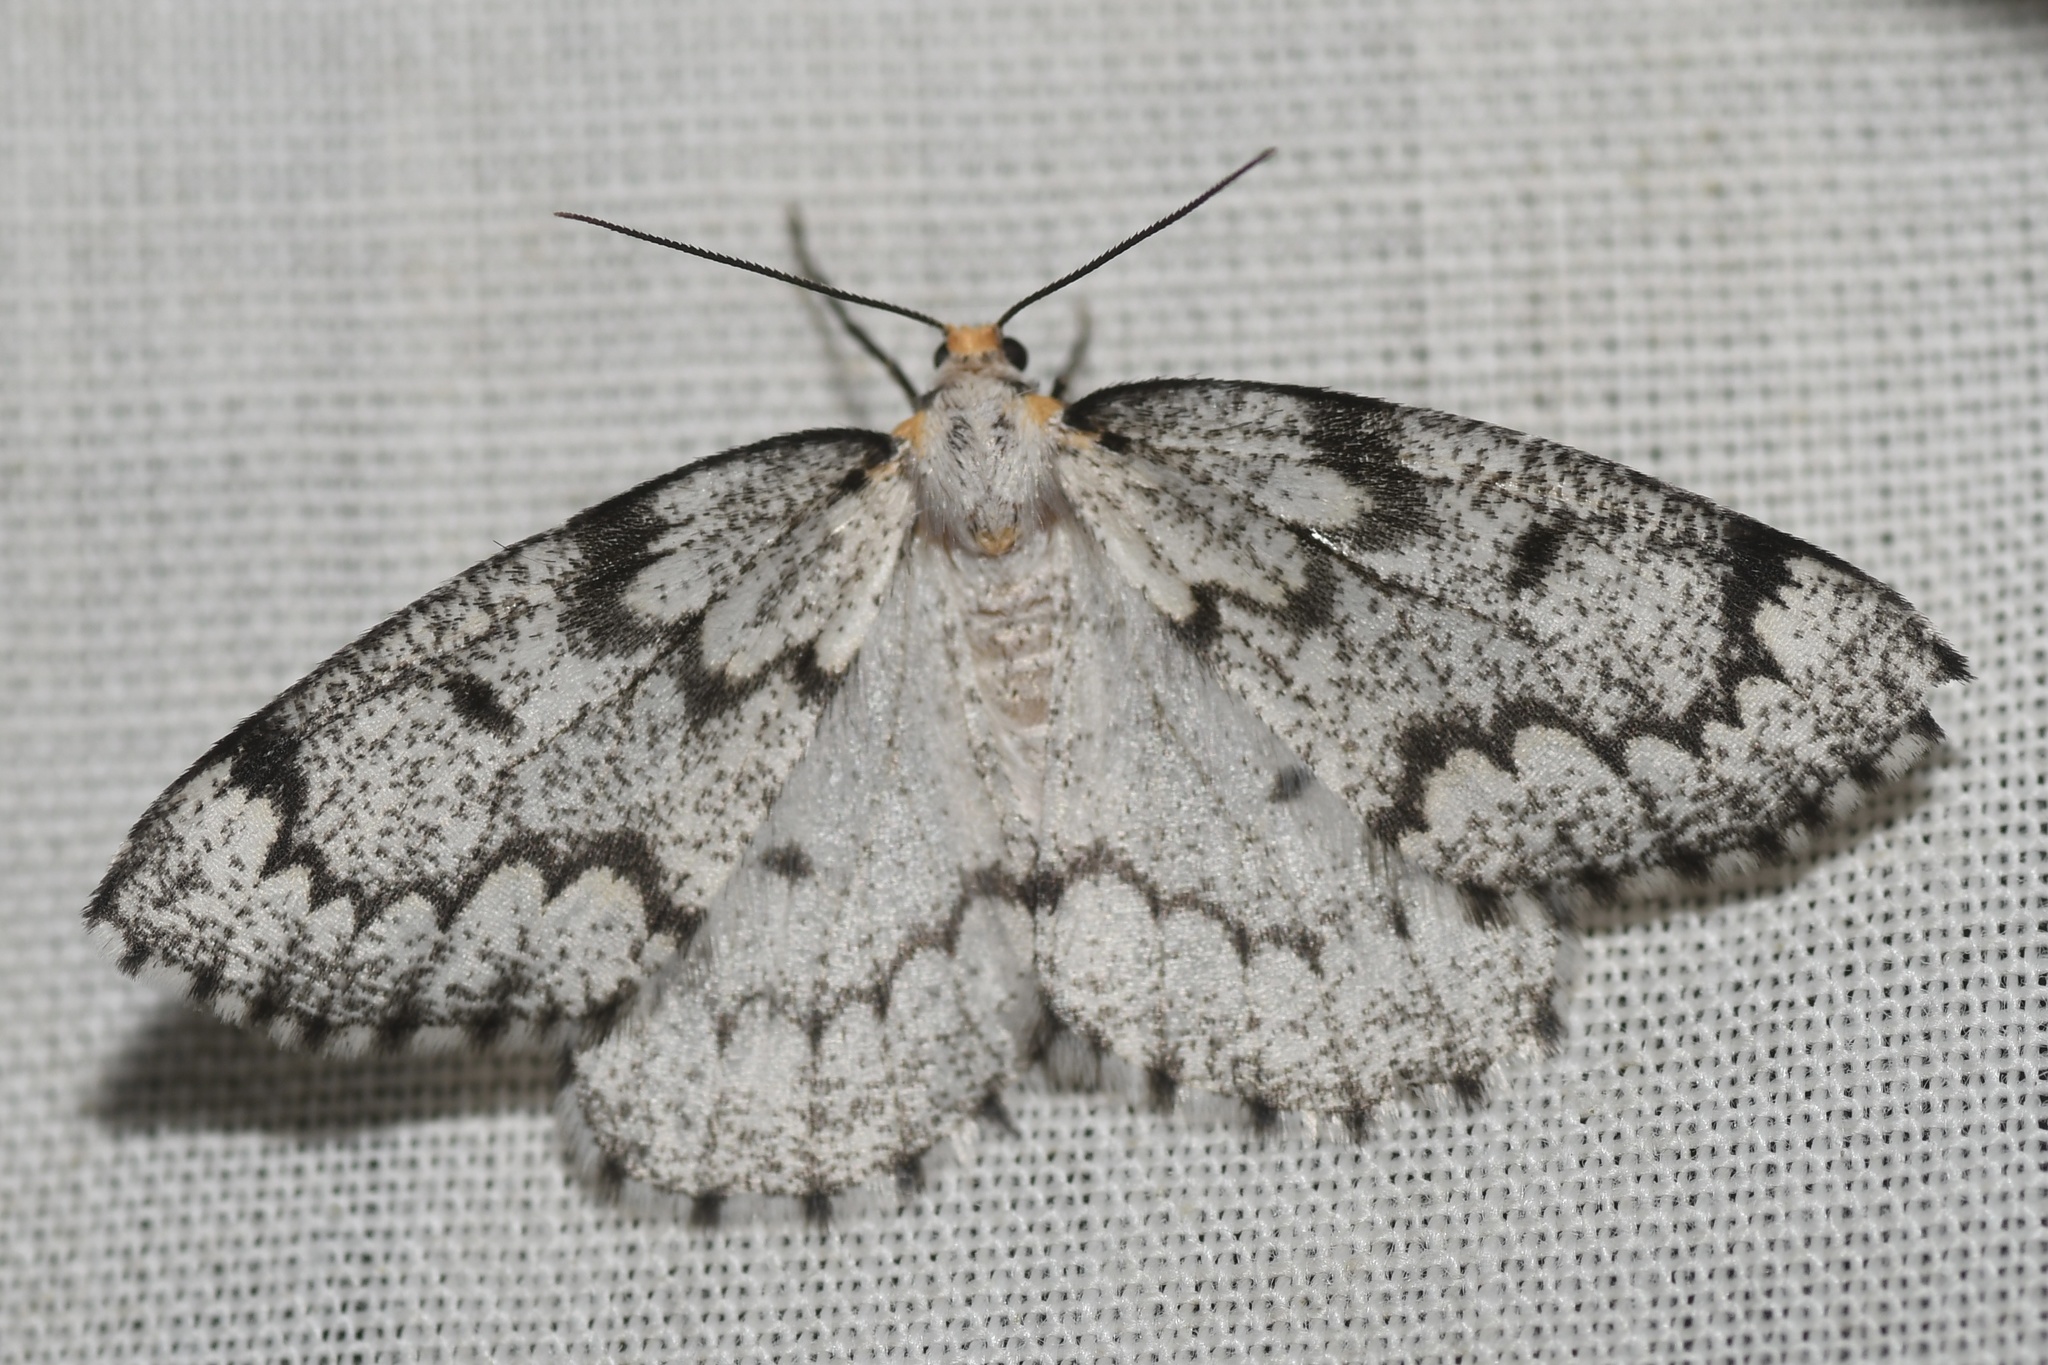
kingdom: Animalia
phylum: Arthropoda
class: Insecta
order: Lepidoptera
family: Geometridae
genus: Nepytia
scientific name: Nepytia canosaria
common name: False hemlock looper
